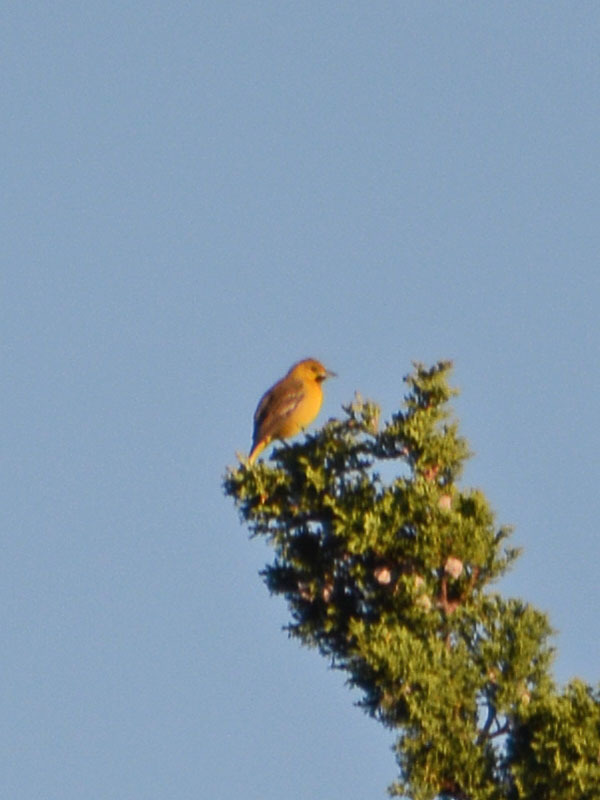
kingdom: Animalia
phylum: Chordata
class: Aves
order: Passeriformes
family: Icteridae
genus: Icterus
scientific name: Icterus spurius
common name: Orchard oriole
